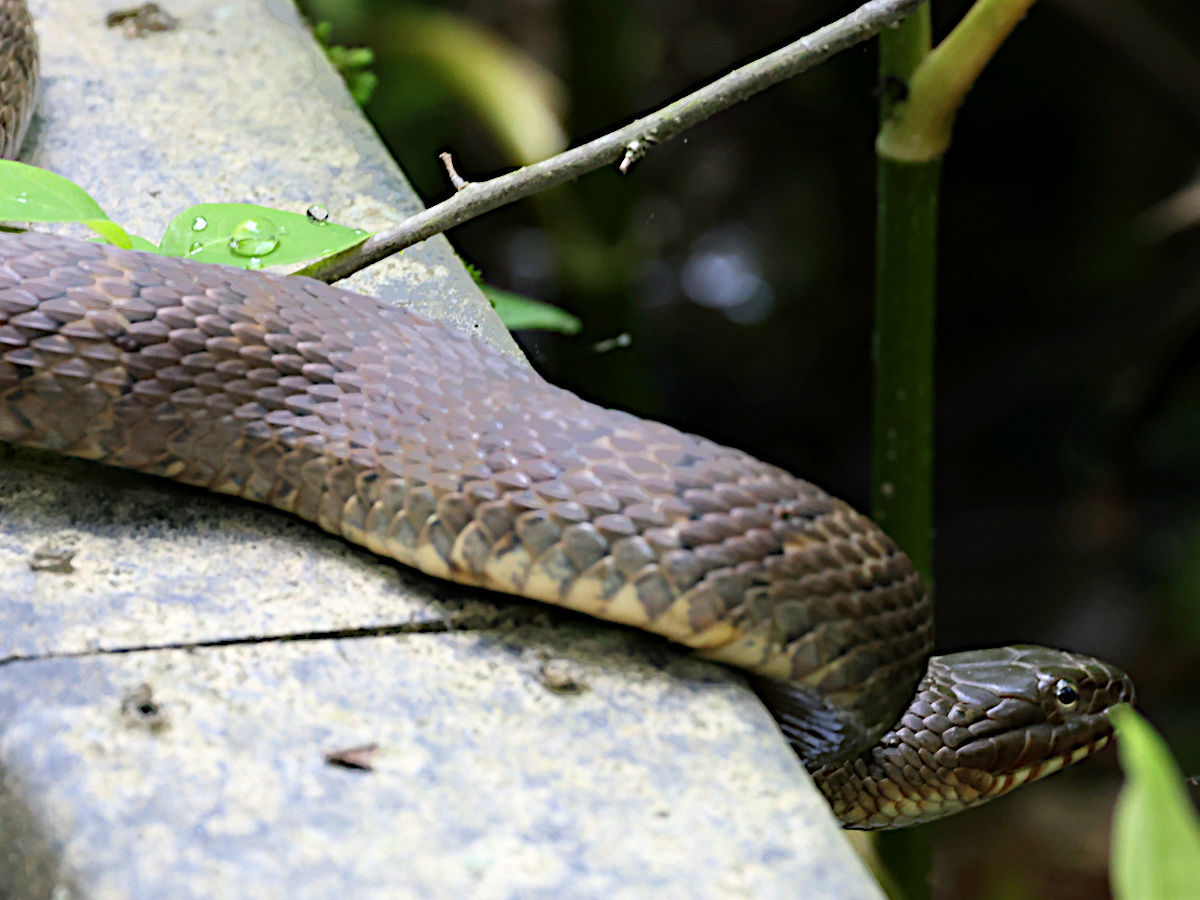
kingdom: Animalia
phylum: Chordata
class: Squamata
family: Colubridae
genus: Nerodia
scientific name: Nerodia sipedon
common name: Northern water snake
